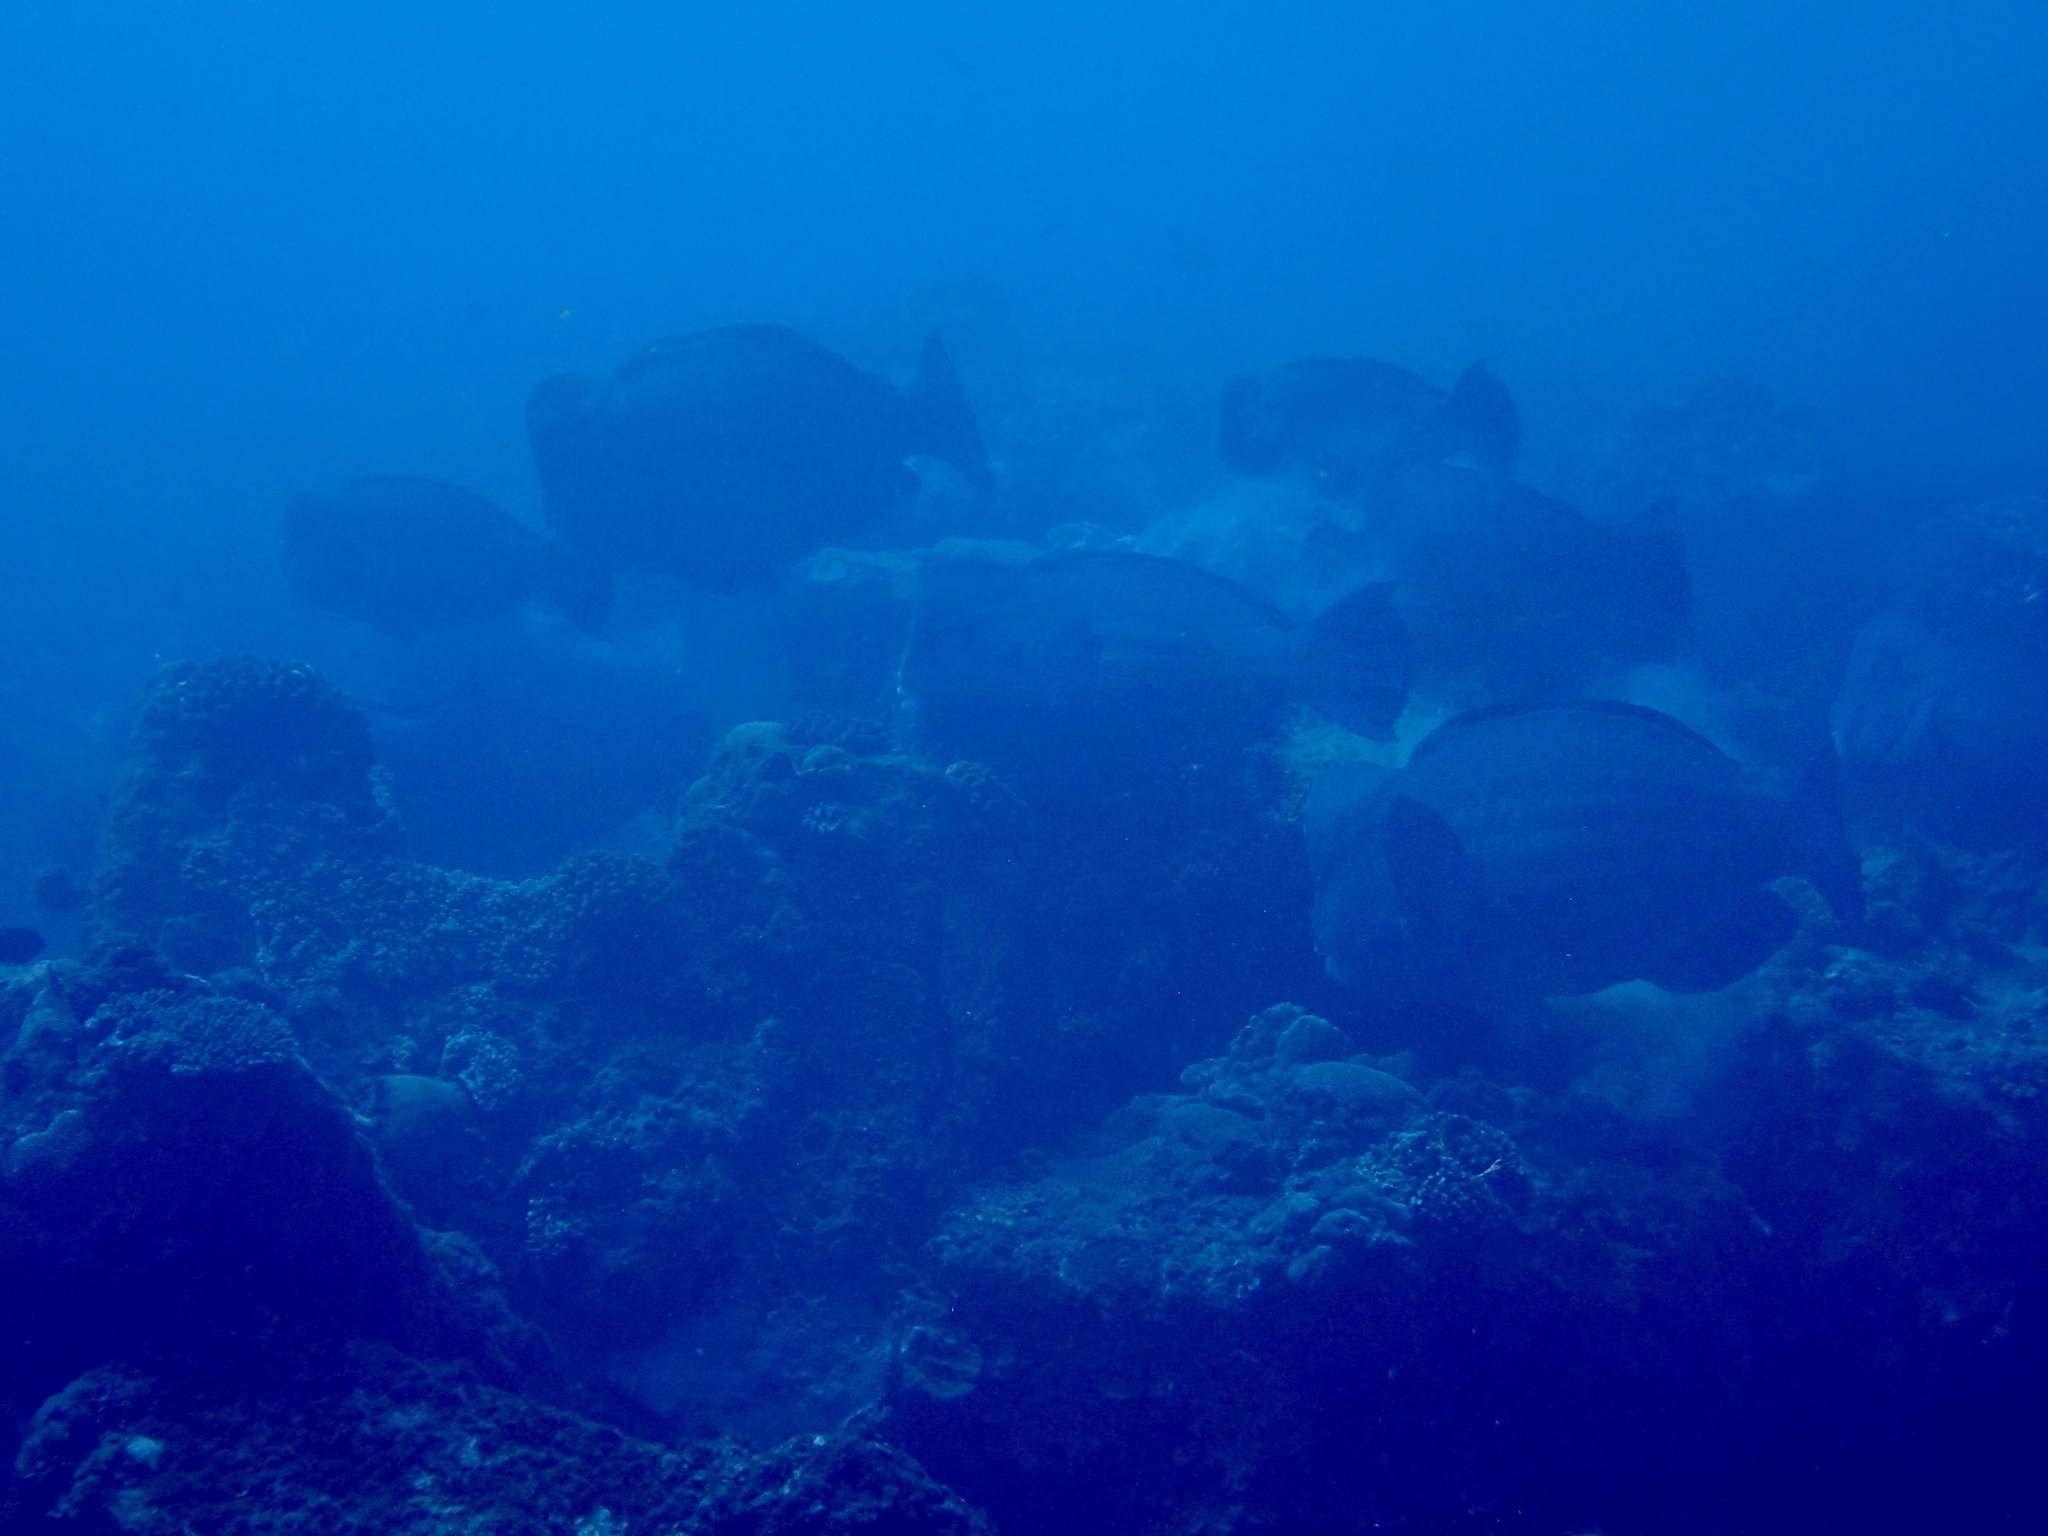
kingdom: Animalia
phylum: Chordata
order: Perciformes
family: Scaridae
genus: Bolbometopon
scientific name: Bolbometopon muricatum
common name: Humphead parrotfish
